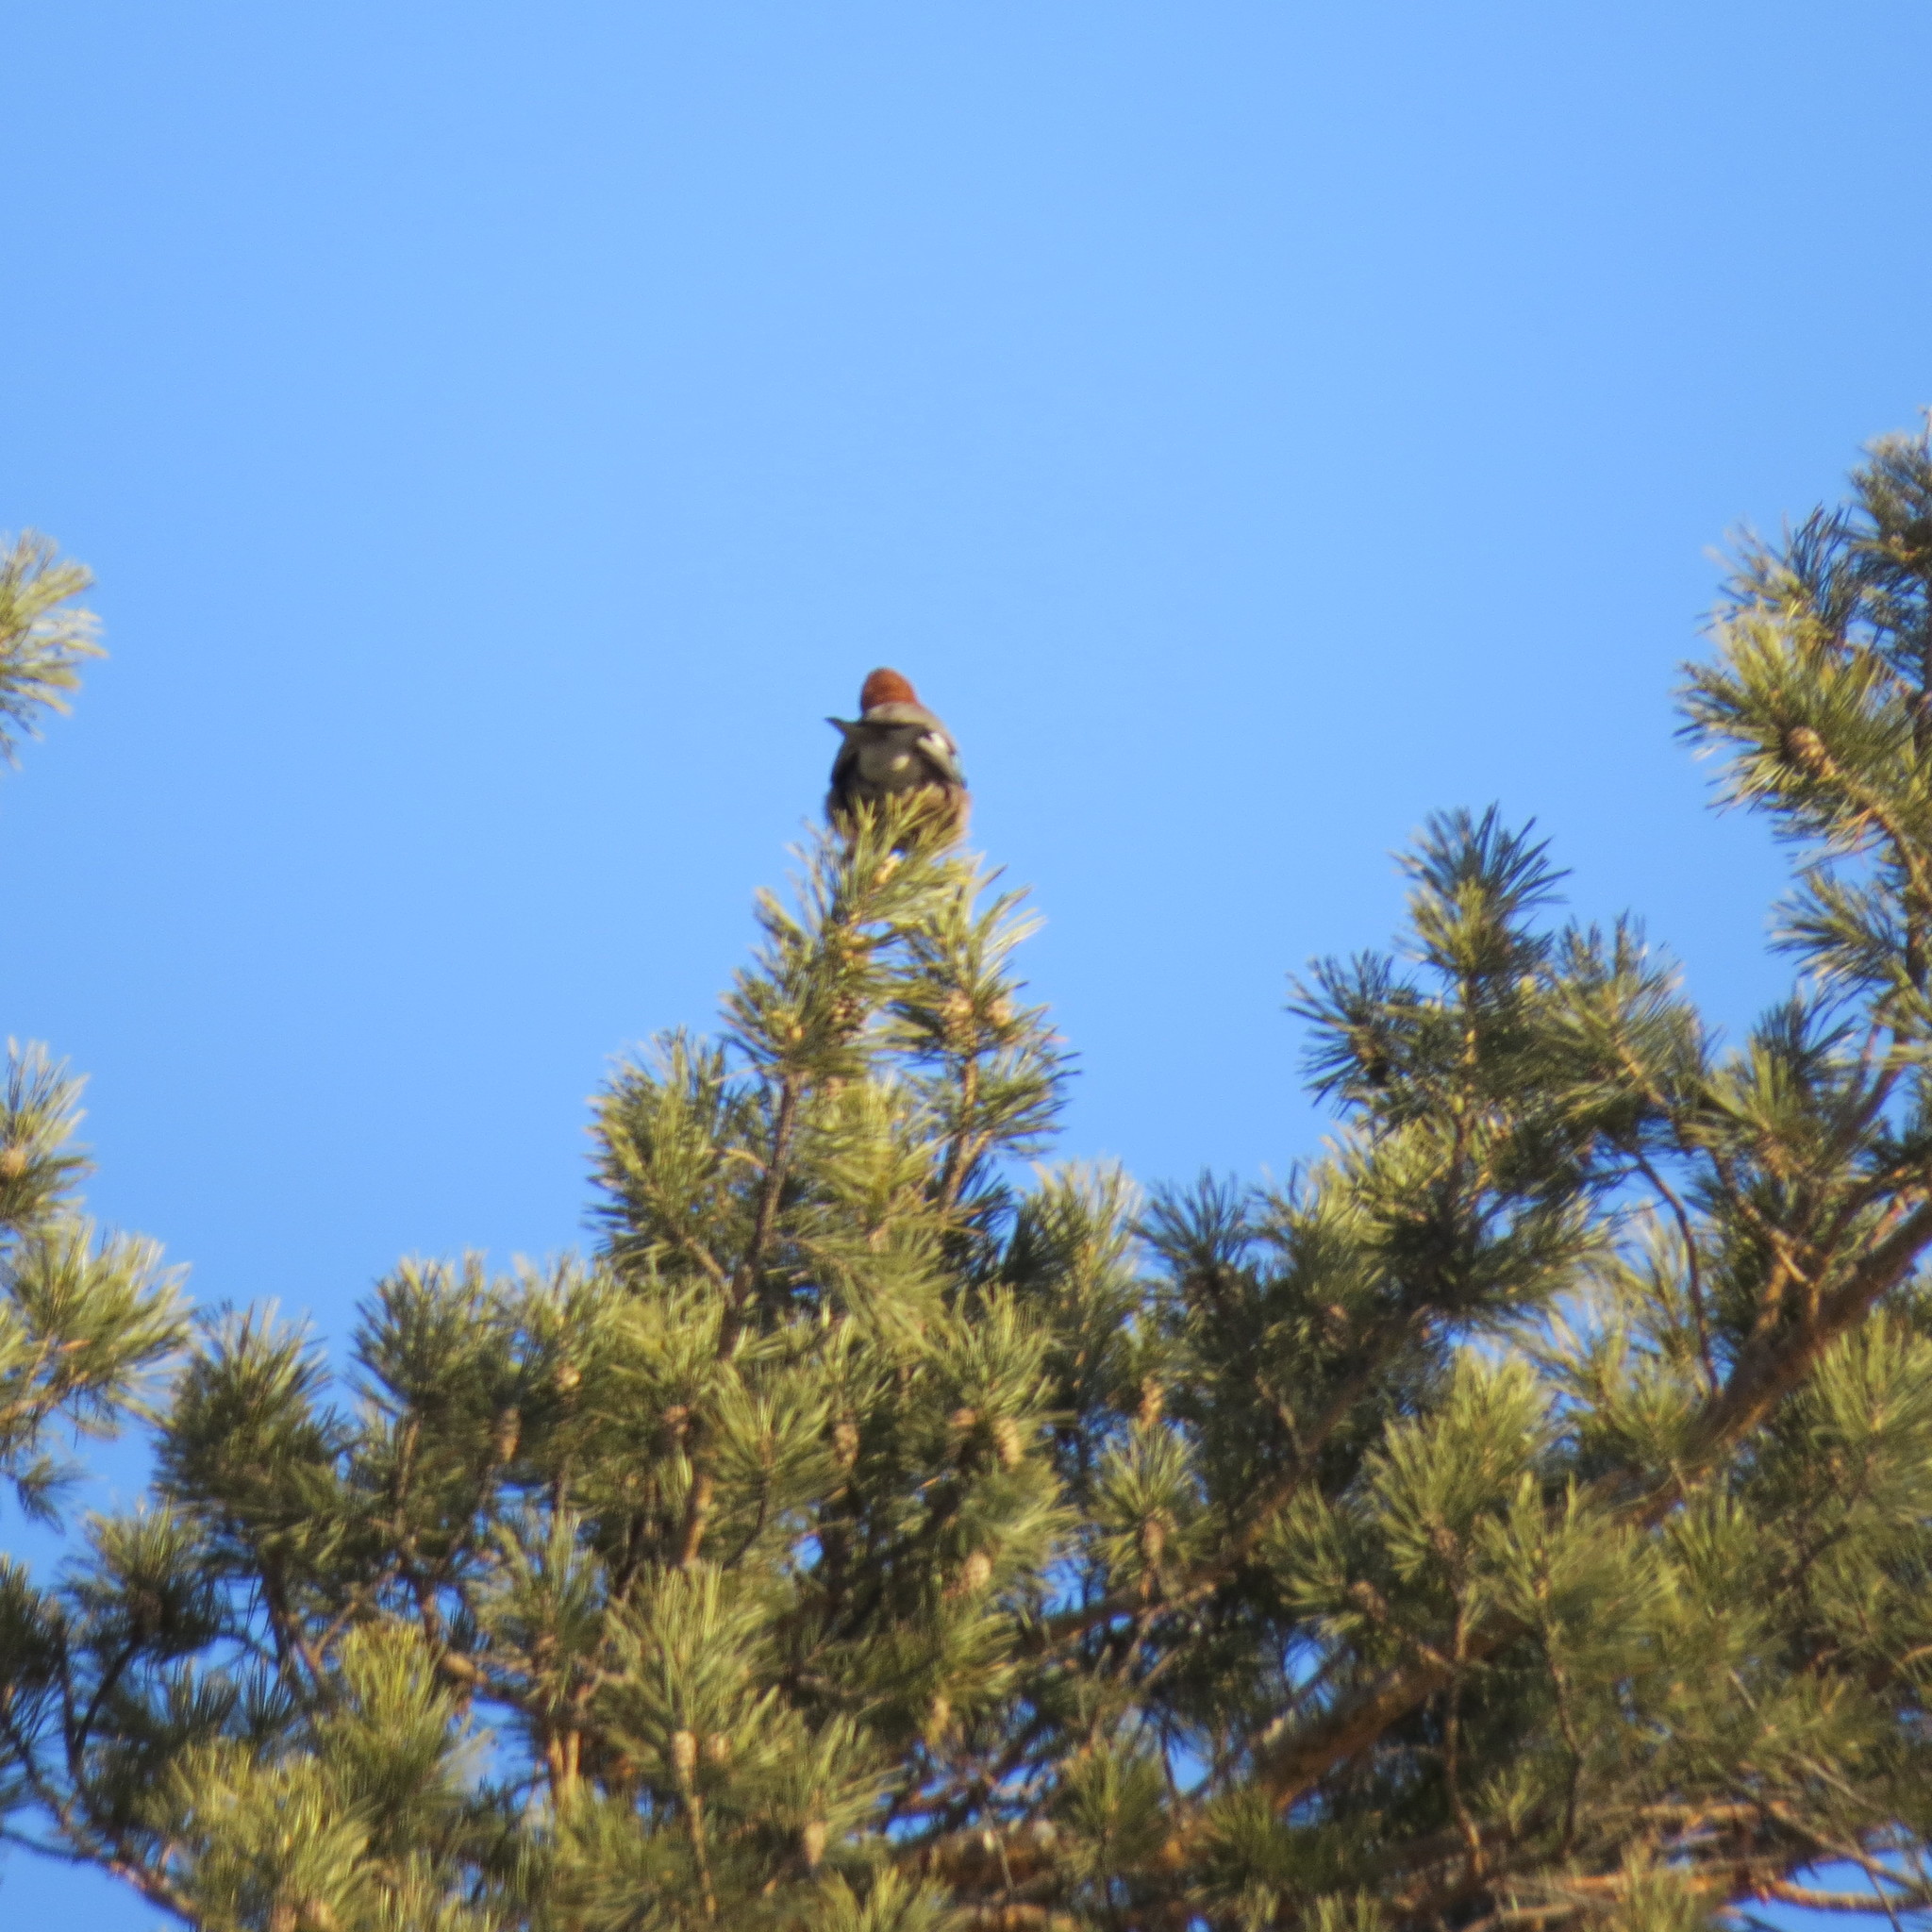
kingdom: Animalia
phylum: Chordata
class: Aves
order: Passeriformes
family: Corvidae
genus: Garrulus
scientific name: Garrulus glandarius
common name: Eurasian jay
